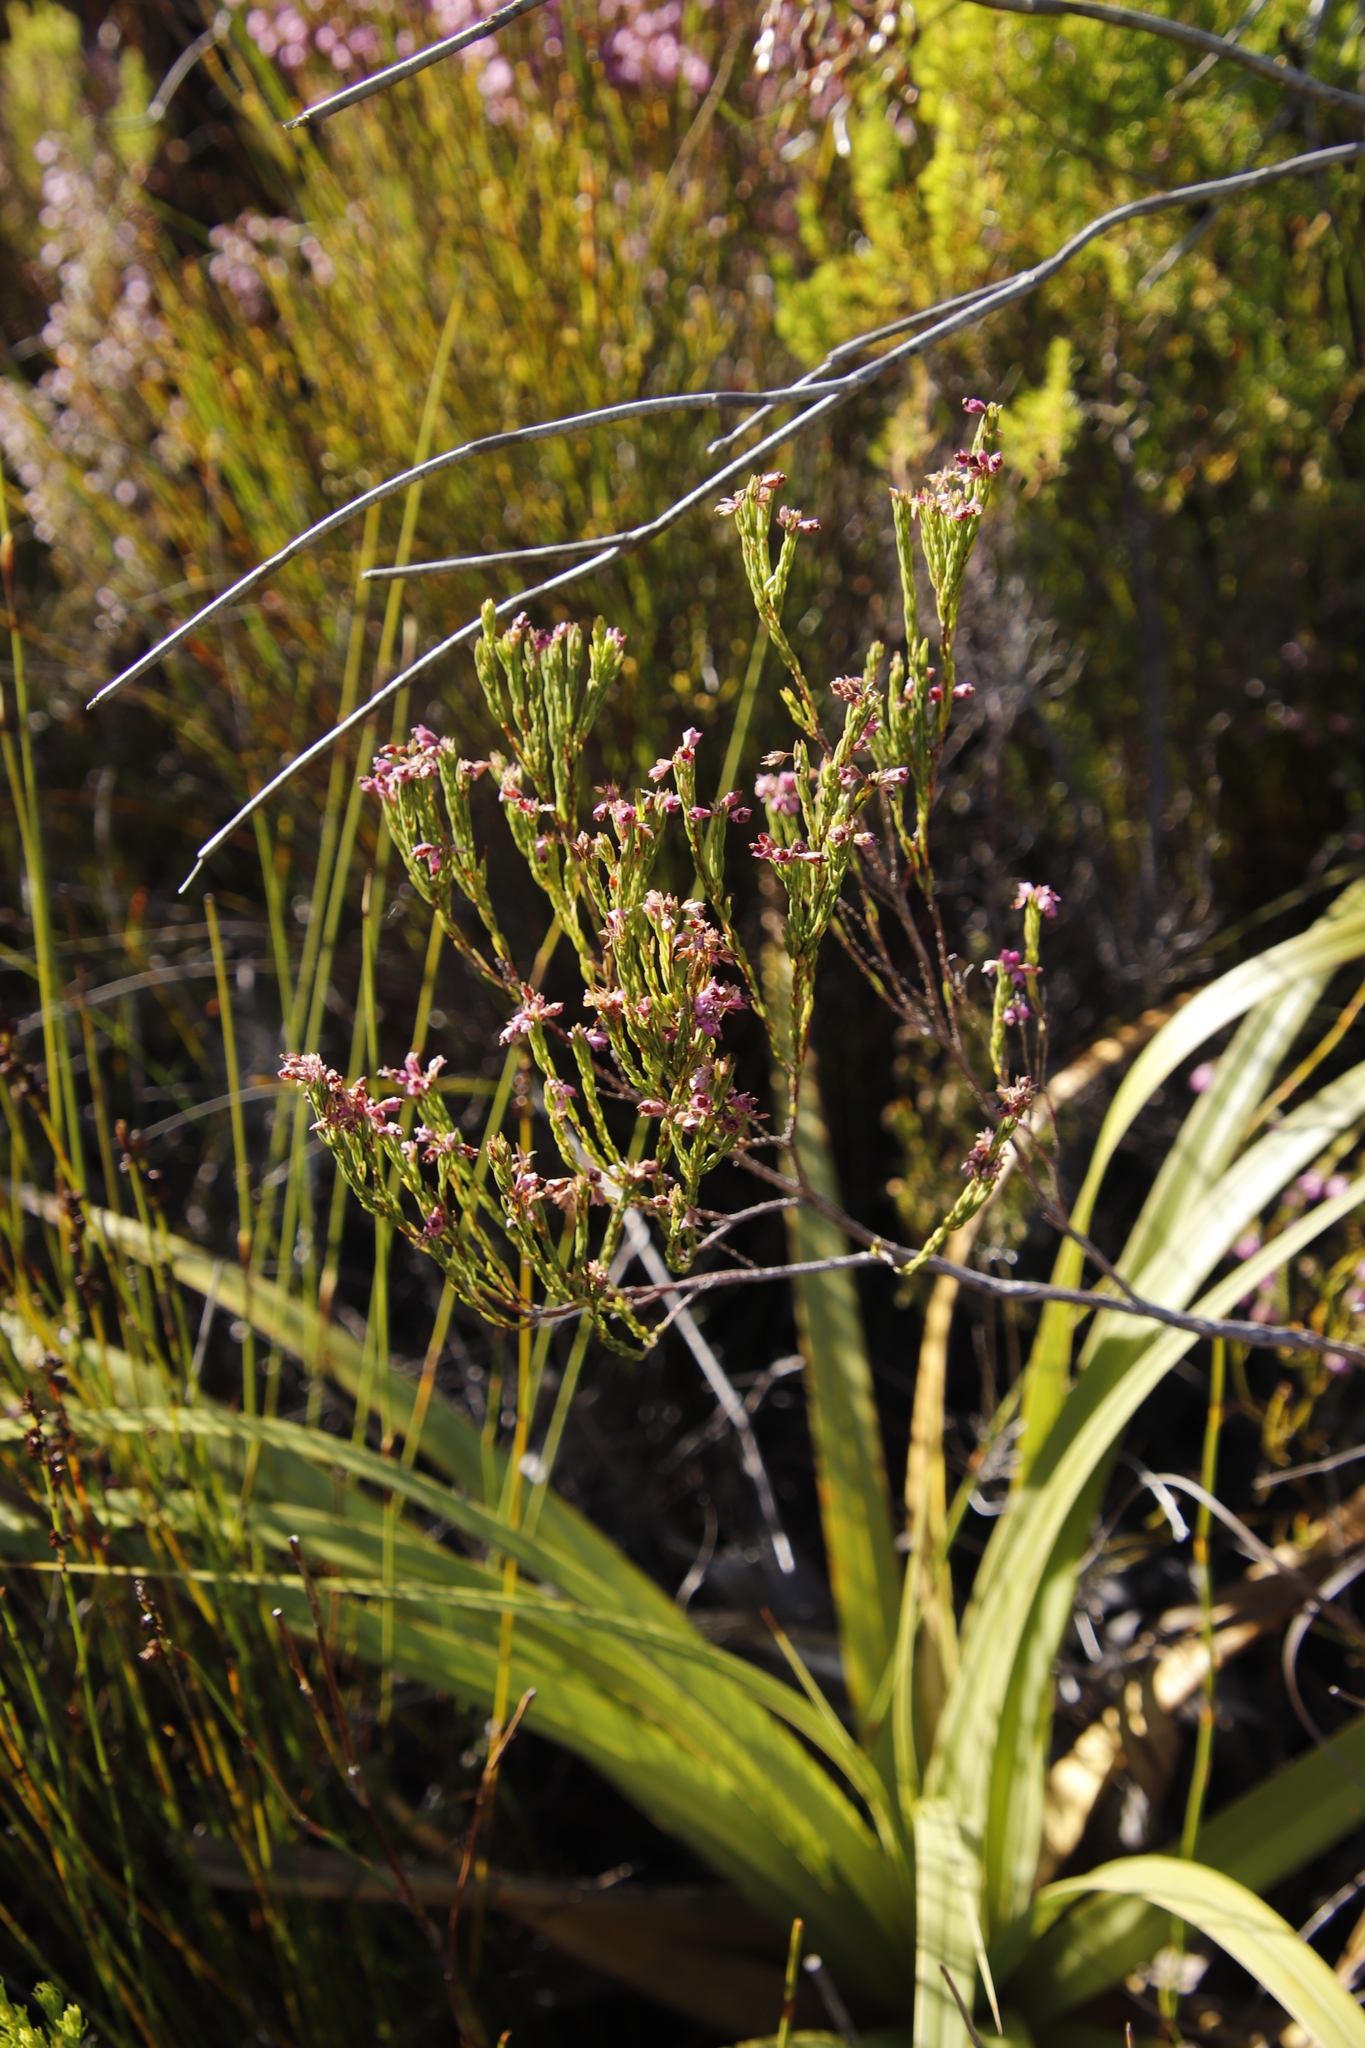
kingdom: Plantae
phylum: Tracheophyta
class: Magnoliopsida
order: Ericales
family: Ericaceae
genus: Erica
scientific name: Erica corifolia
